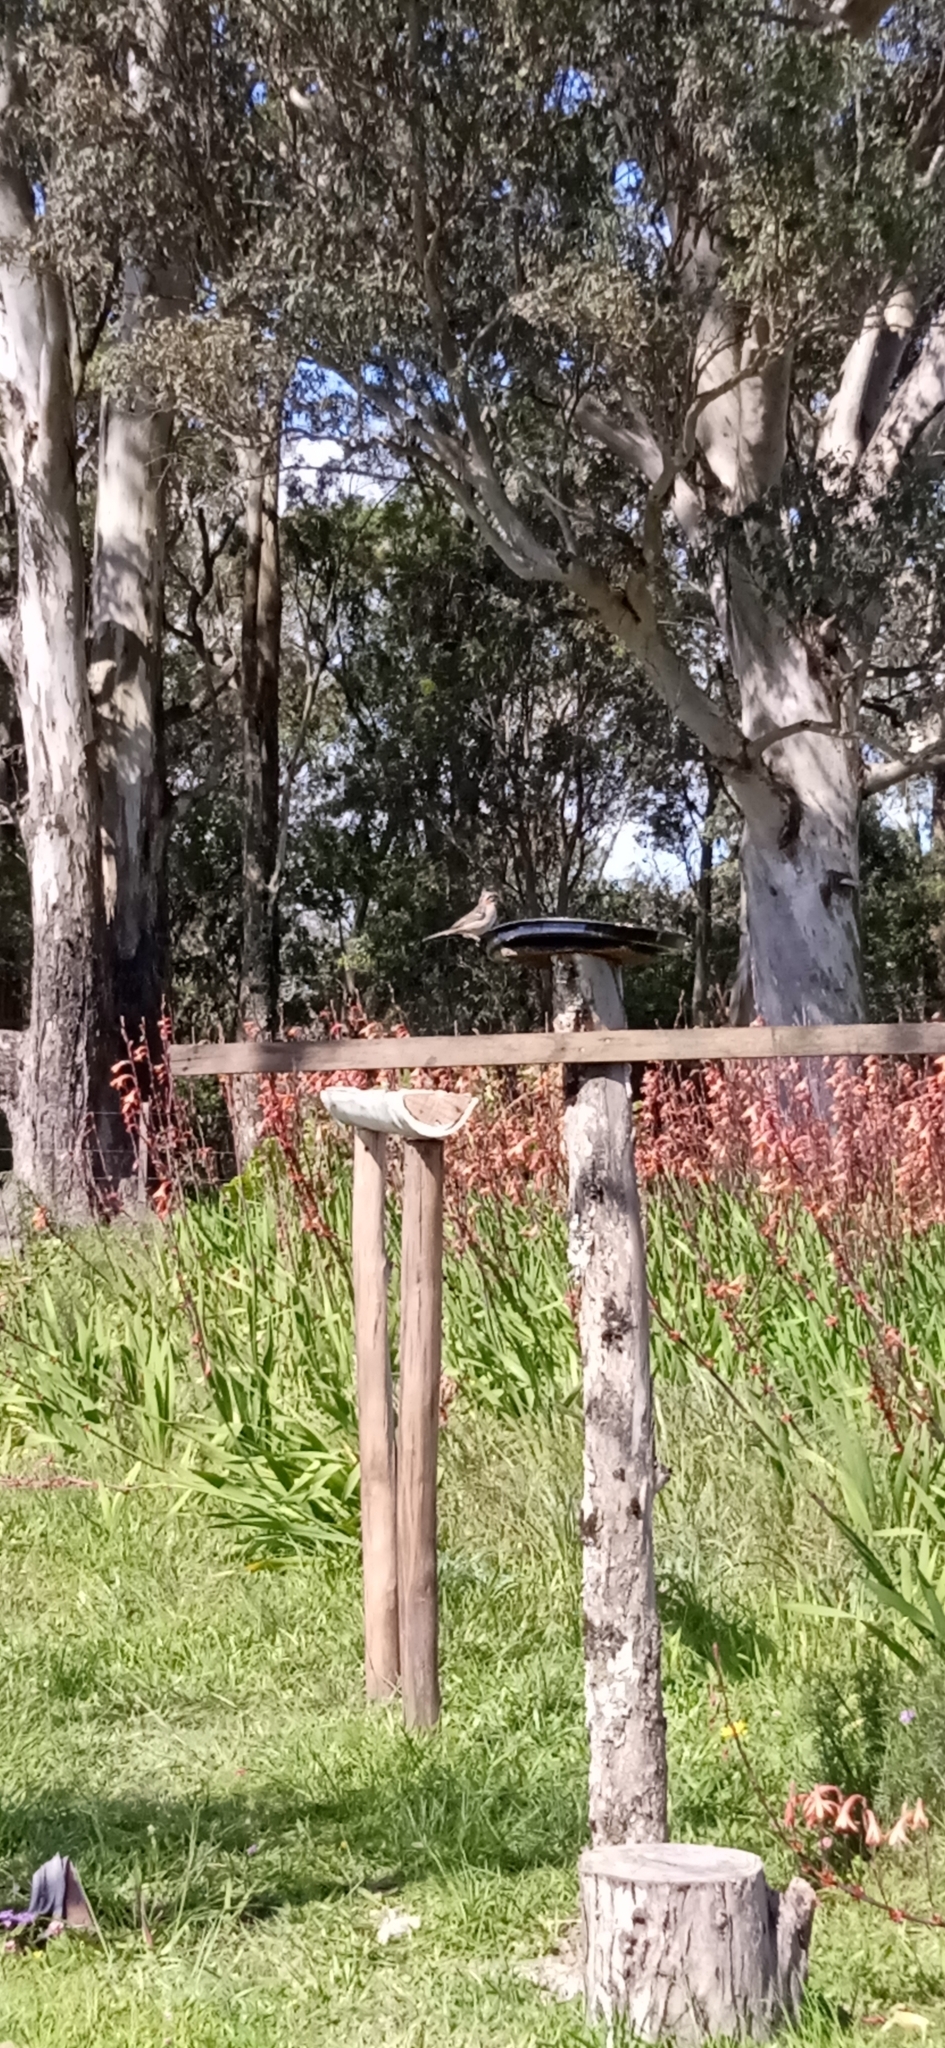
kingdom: Animalia
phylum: Chordata
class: Aves
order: Passeriformes
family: Passerellidae
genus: Zonotrichia
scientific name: Zonotrichia capensis
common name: Rufous-collared sparrow
